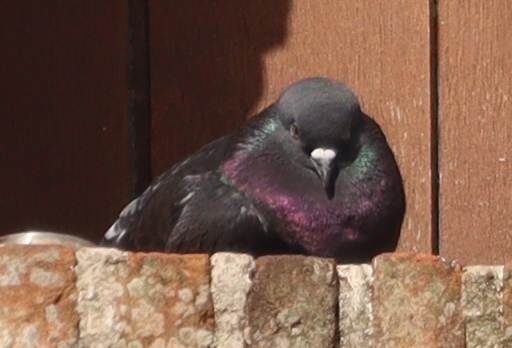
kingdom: Animalia
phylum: Chordata
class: Aves
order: Columbiformes
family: Columbidae
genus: Columba
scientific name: Columba livia
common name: Rock pigeon
